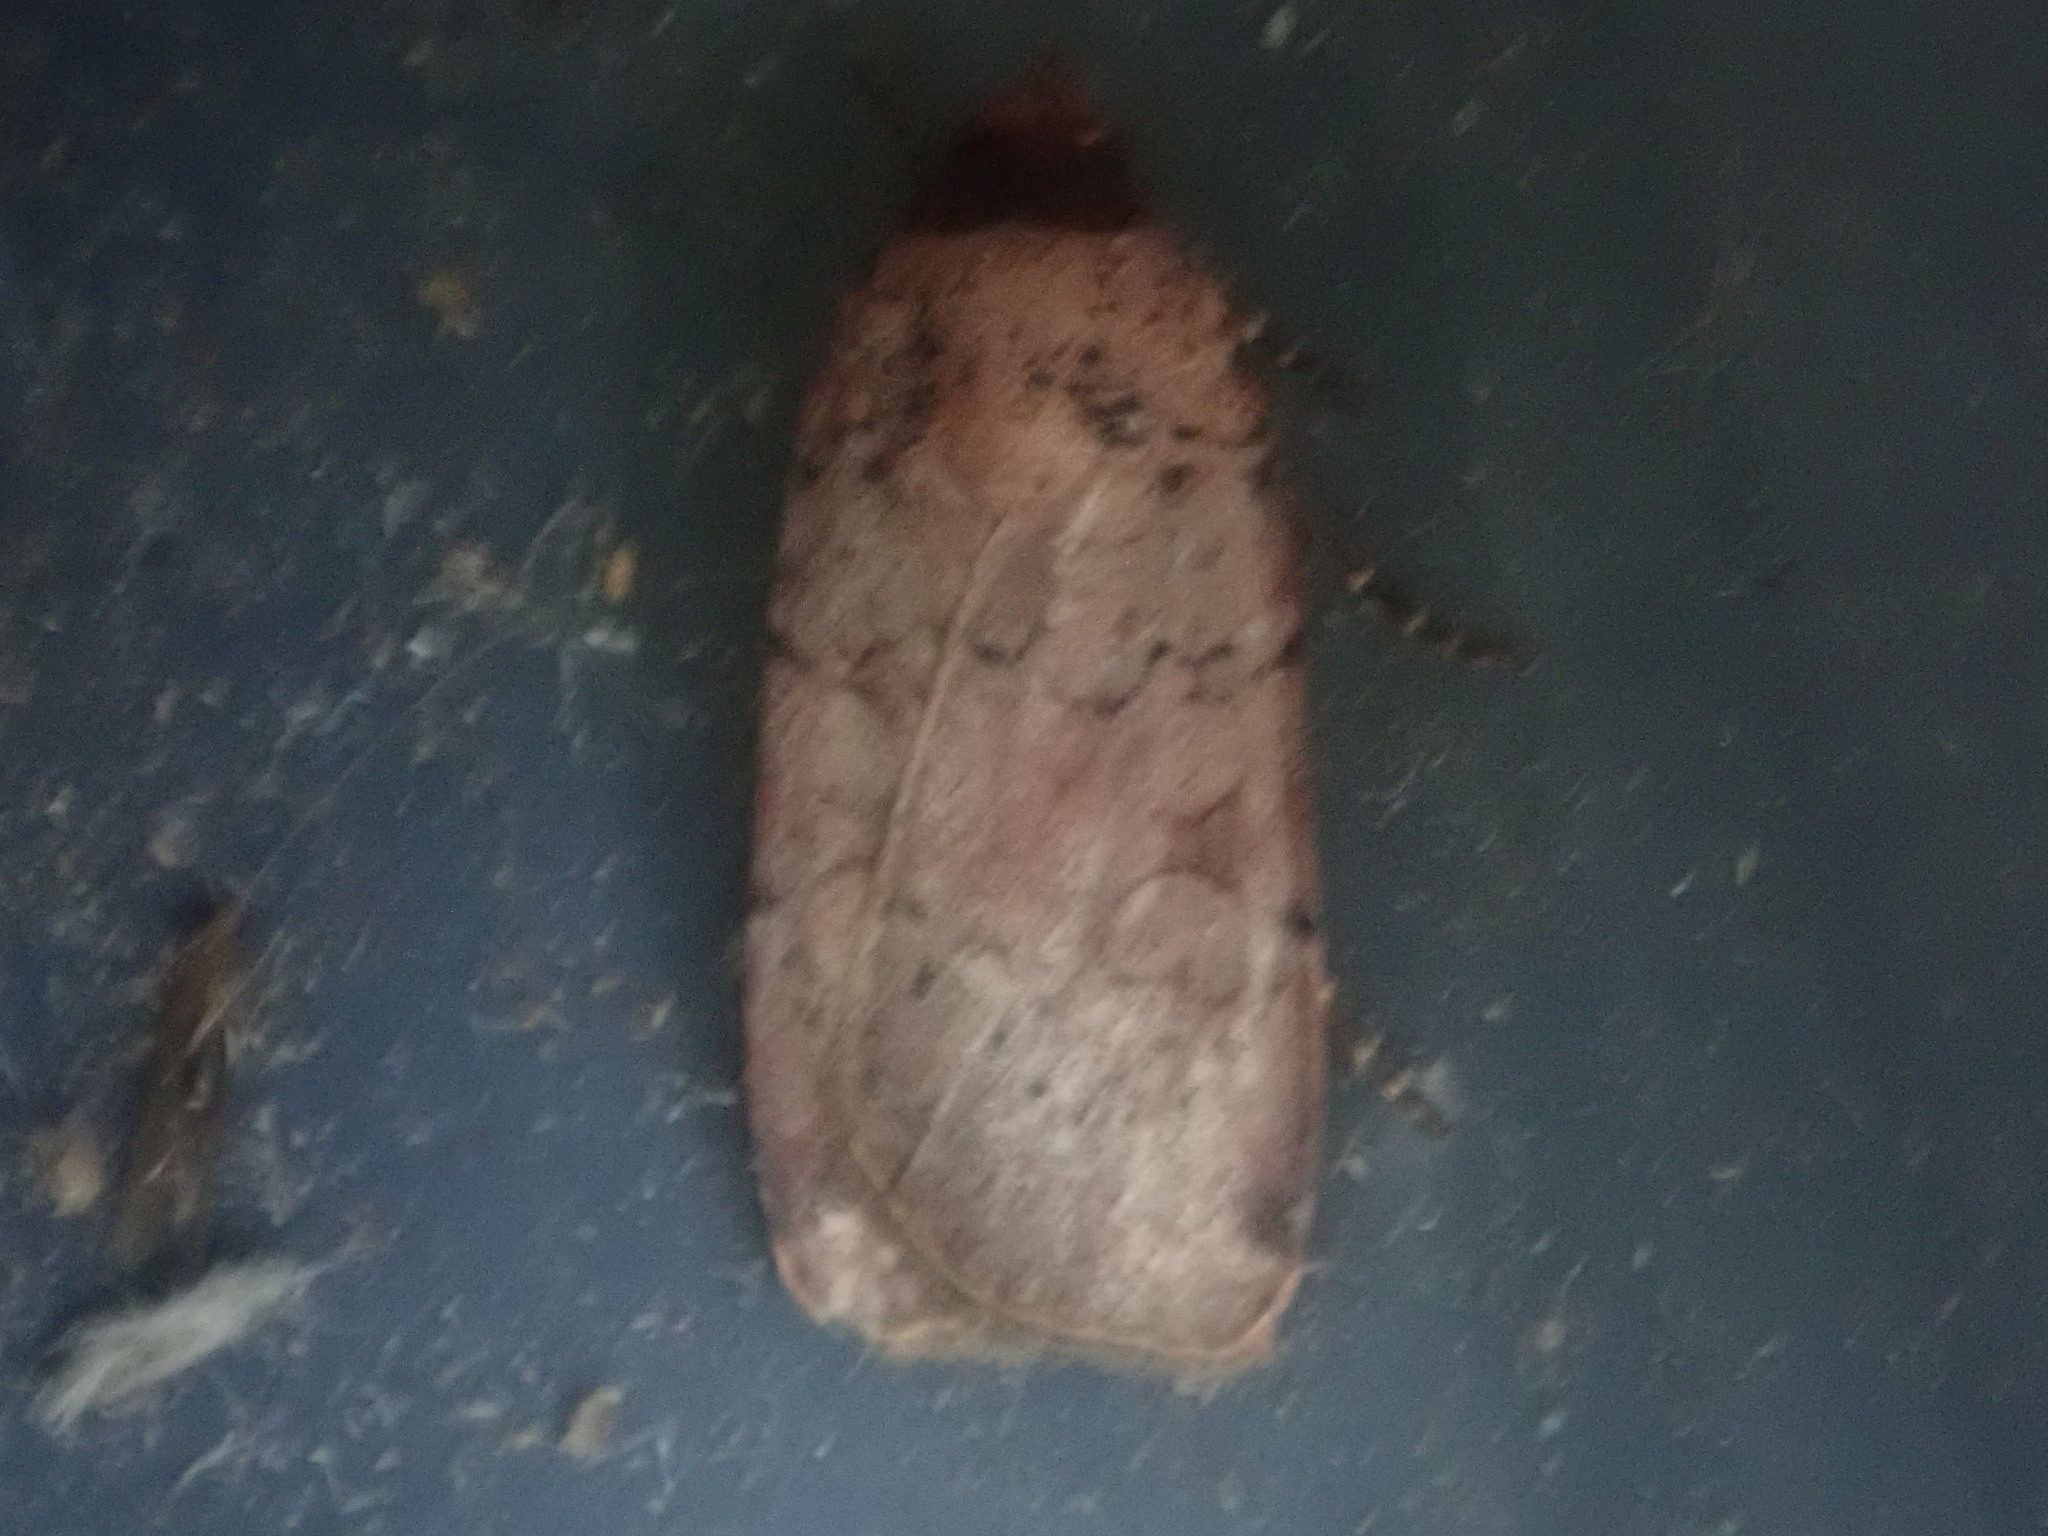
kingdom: Animalia
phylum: Arthropoda
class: Insecta
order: Lepidoptera
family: Noctuidae
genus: Protolampra
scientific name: Protolampra brunneicollis
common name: Brown-collared dart
